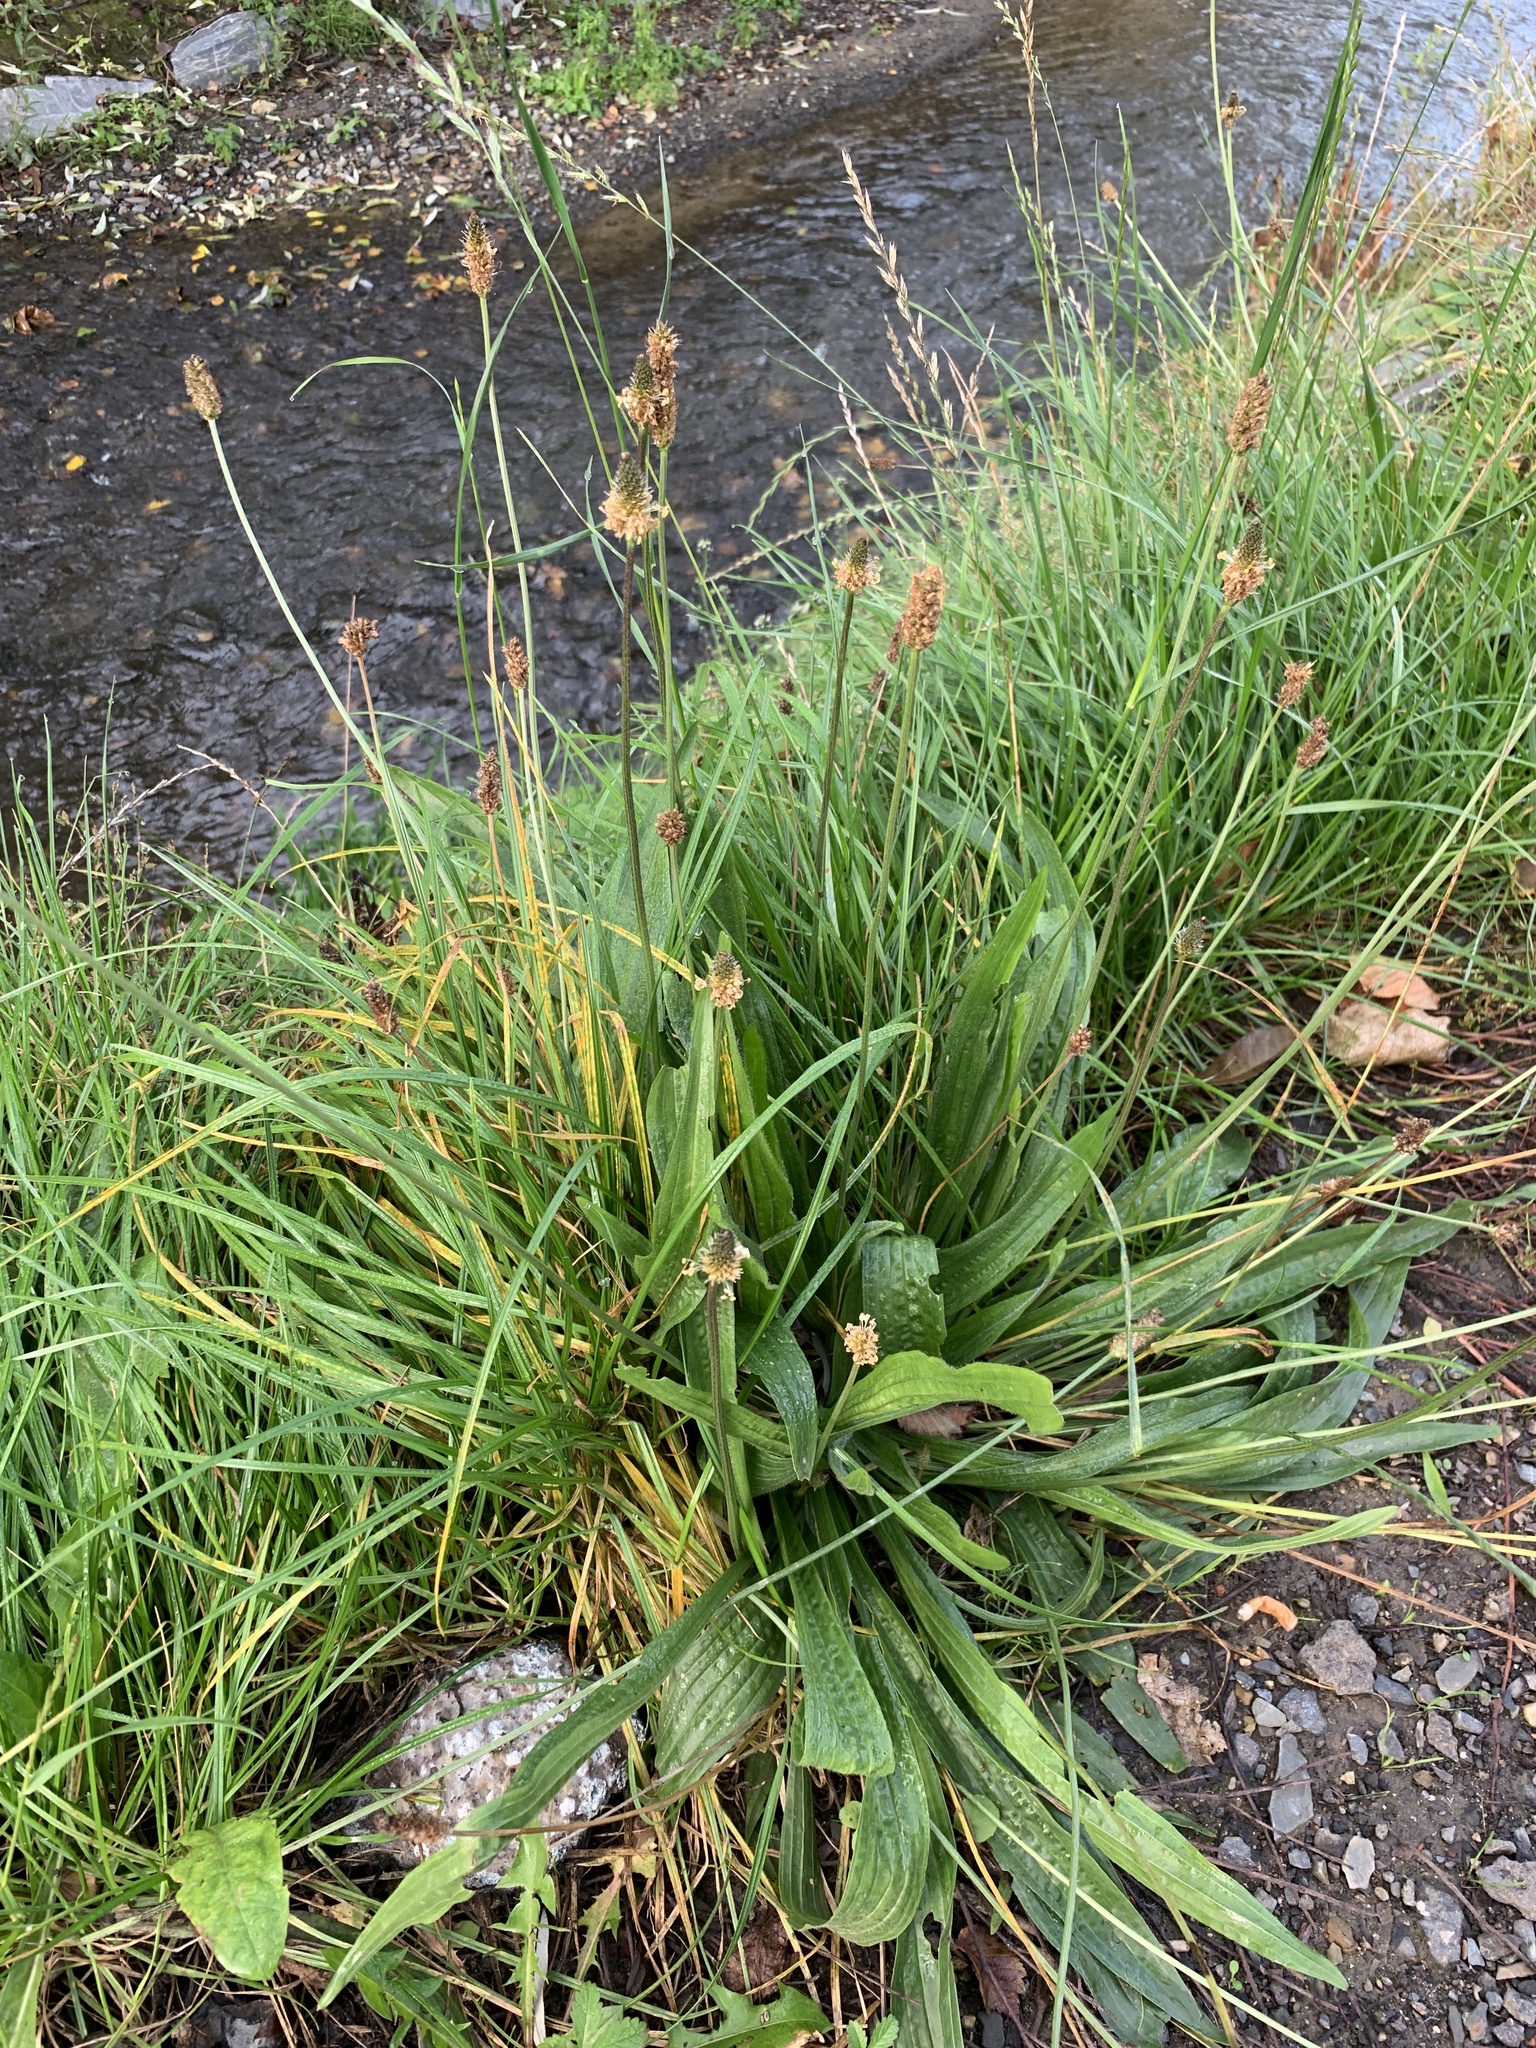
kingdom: Plantae
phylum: Tracheophyta
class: Magnoliopsida
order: Lamiales
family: Plantaginaceae
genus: Plantago
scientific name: Plantago lanceolata
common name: Ribwort plantain
